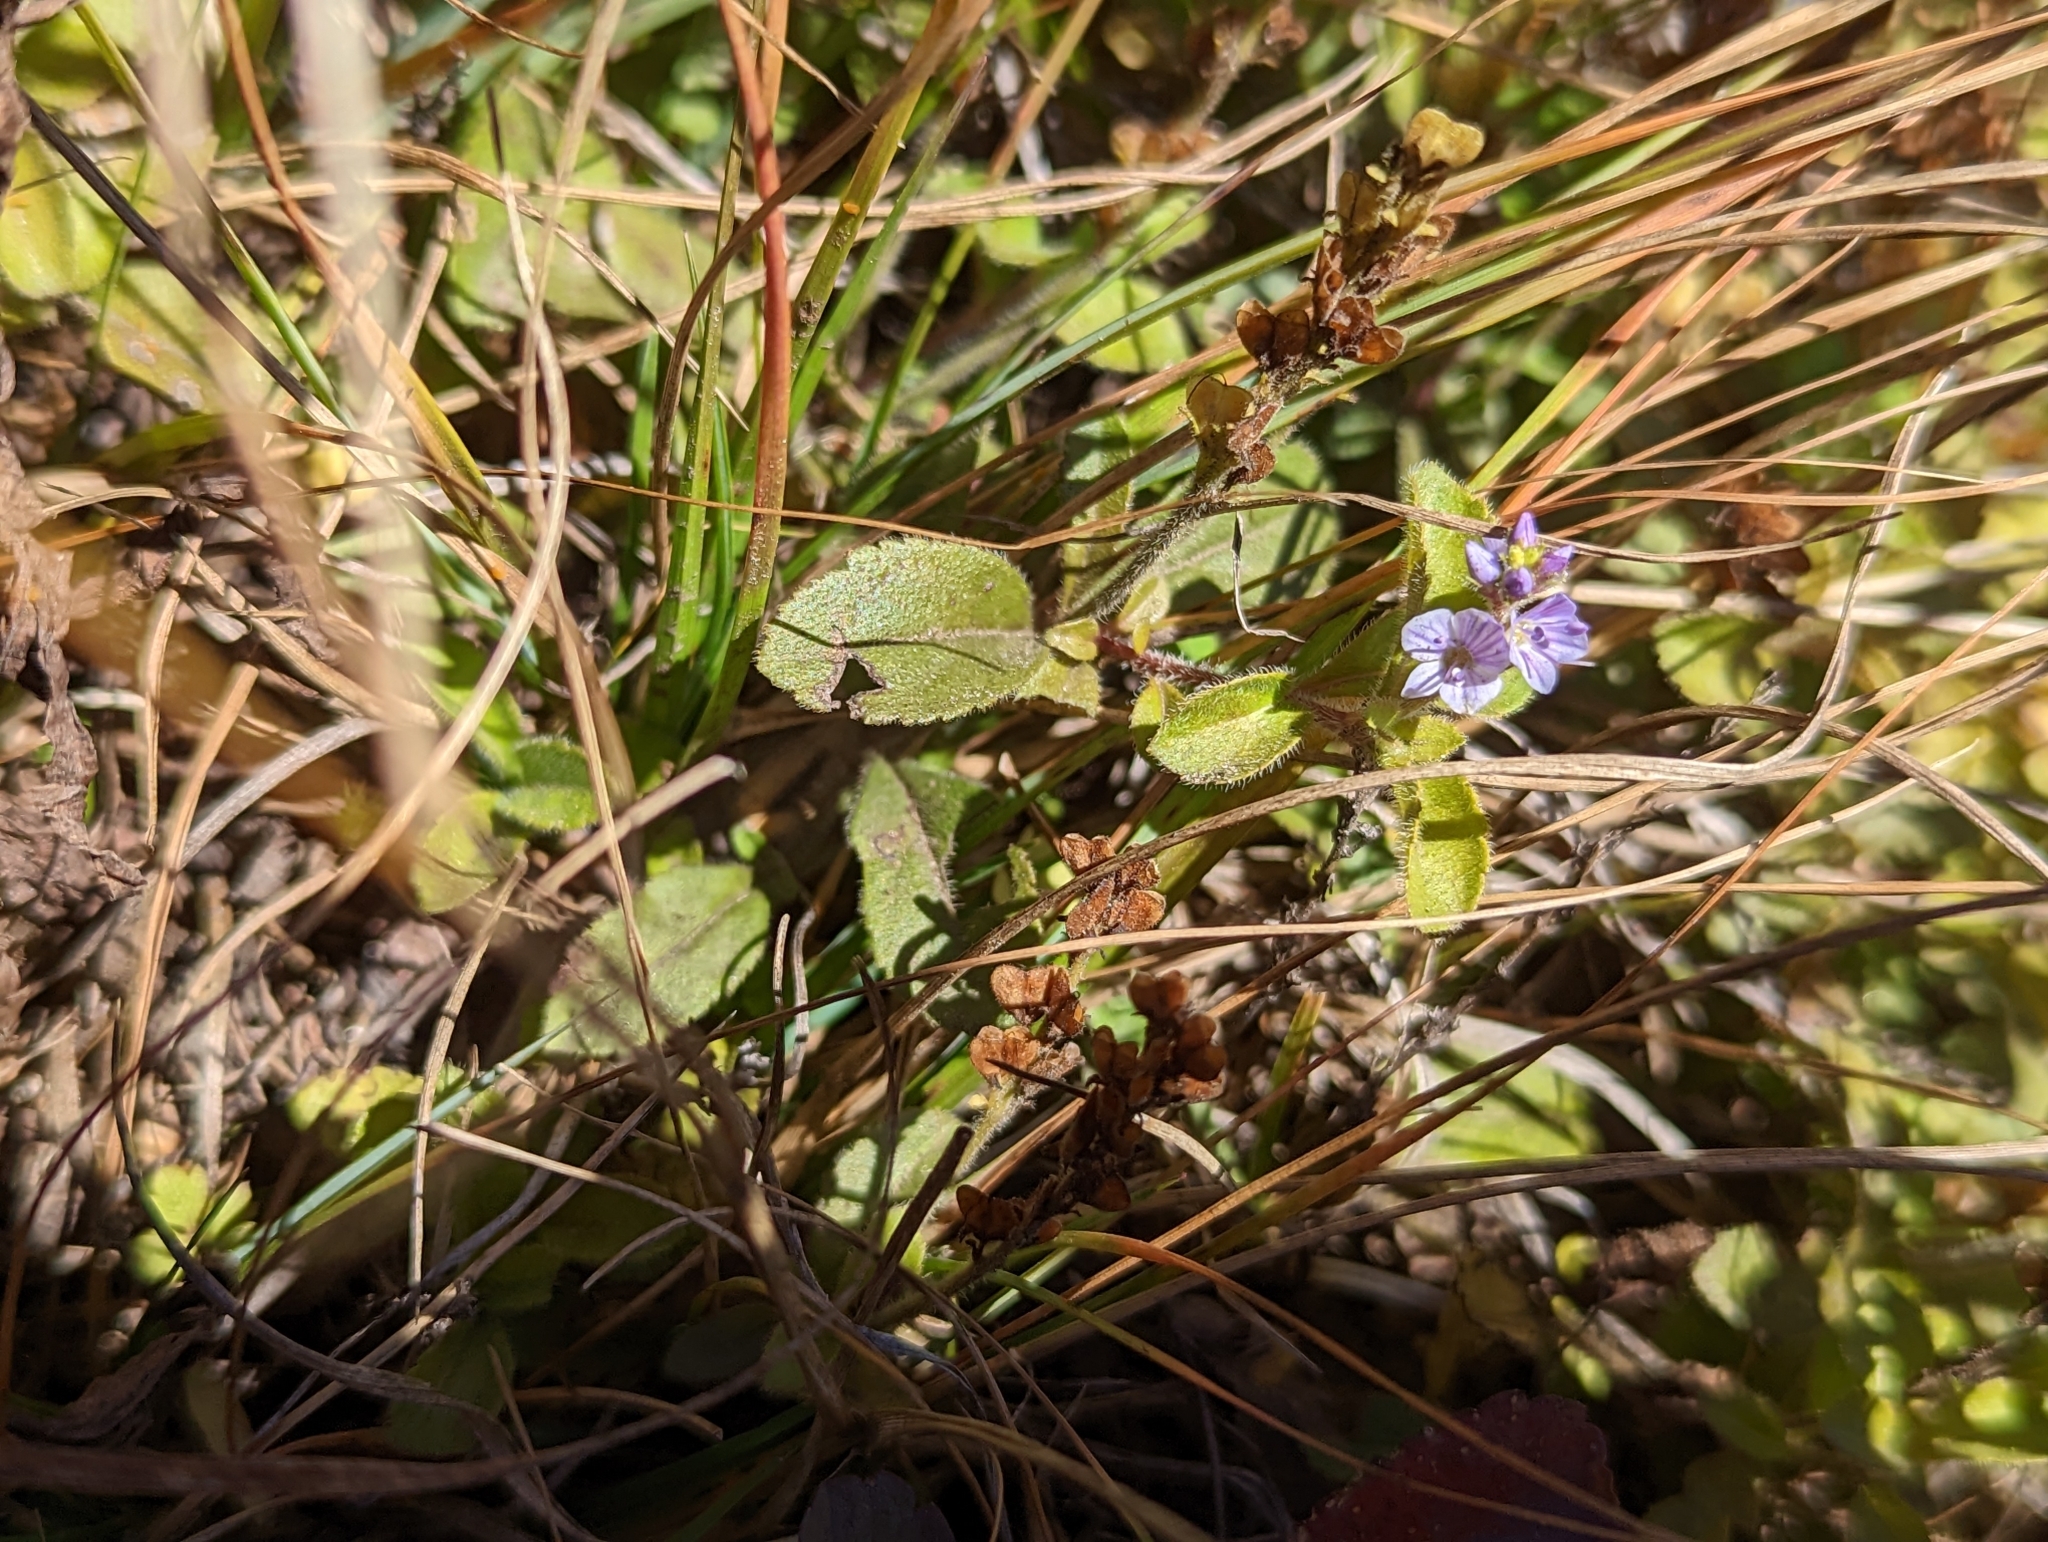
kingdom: Plantae
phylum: Tracheophyta
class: Magnoliopsida
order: Lamiales
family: Plantaginaceae
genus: Veronica
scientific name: Veronica officinalis
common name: Common speedwell
